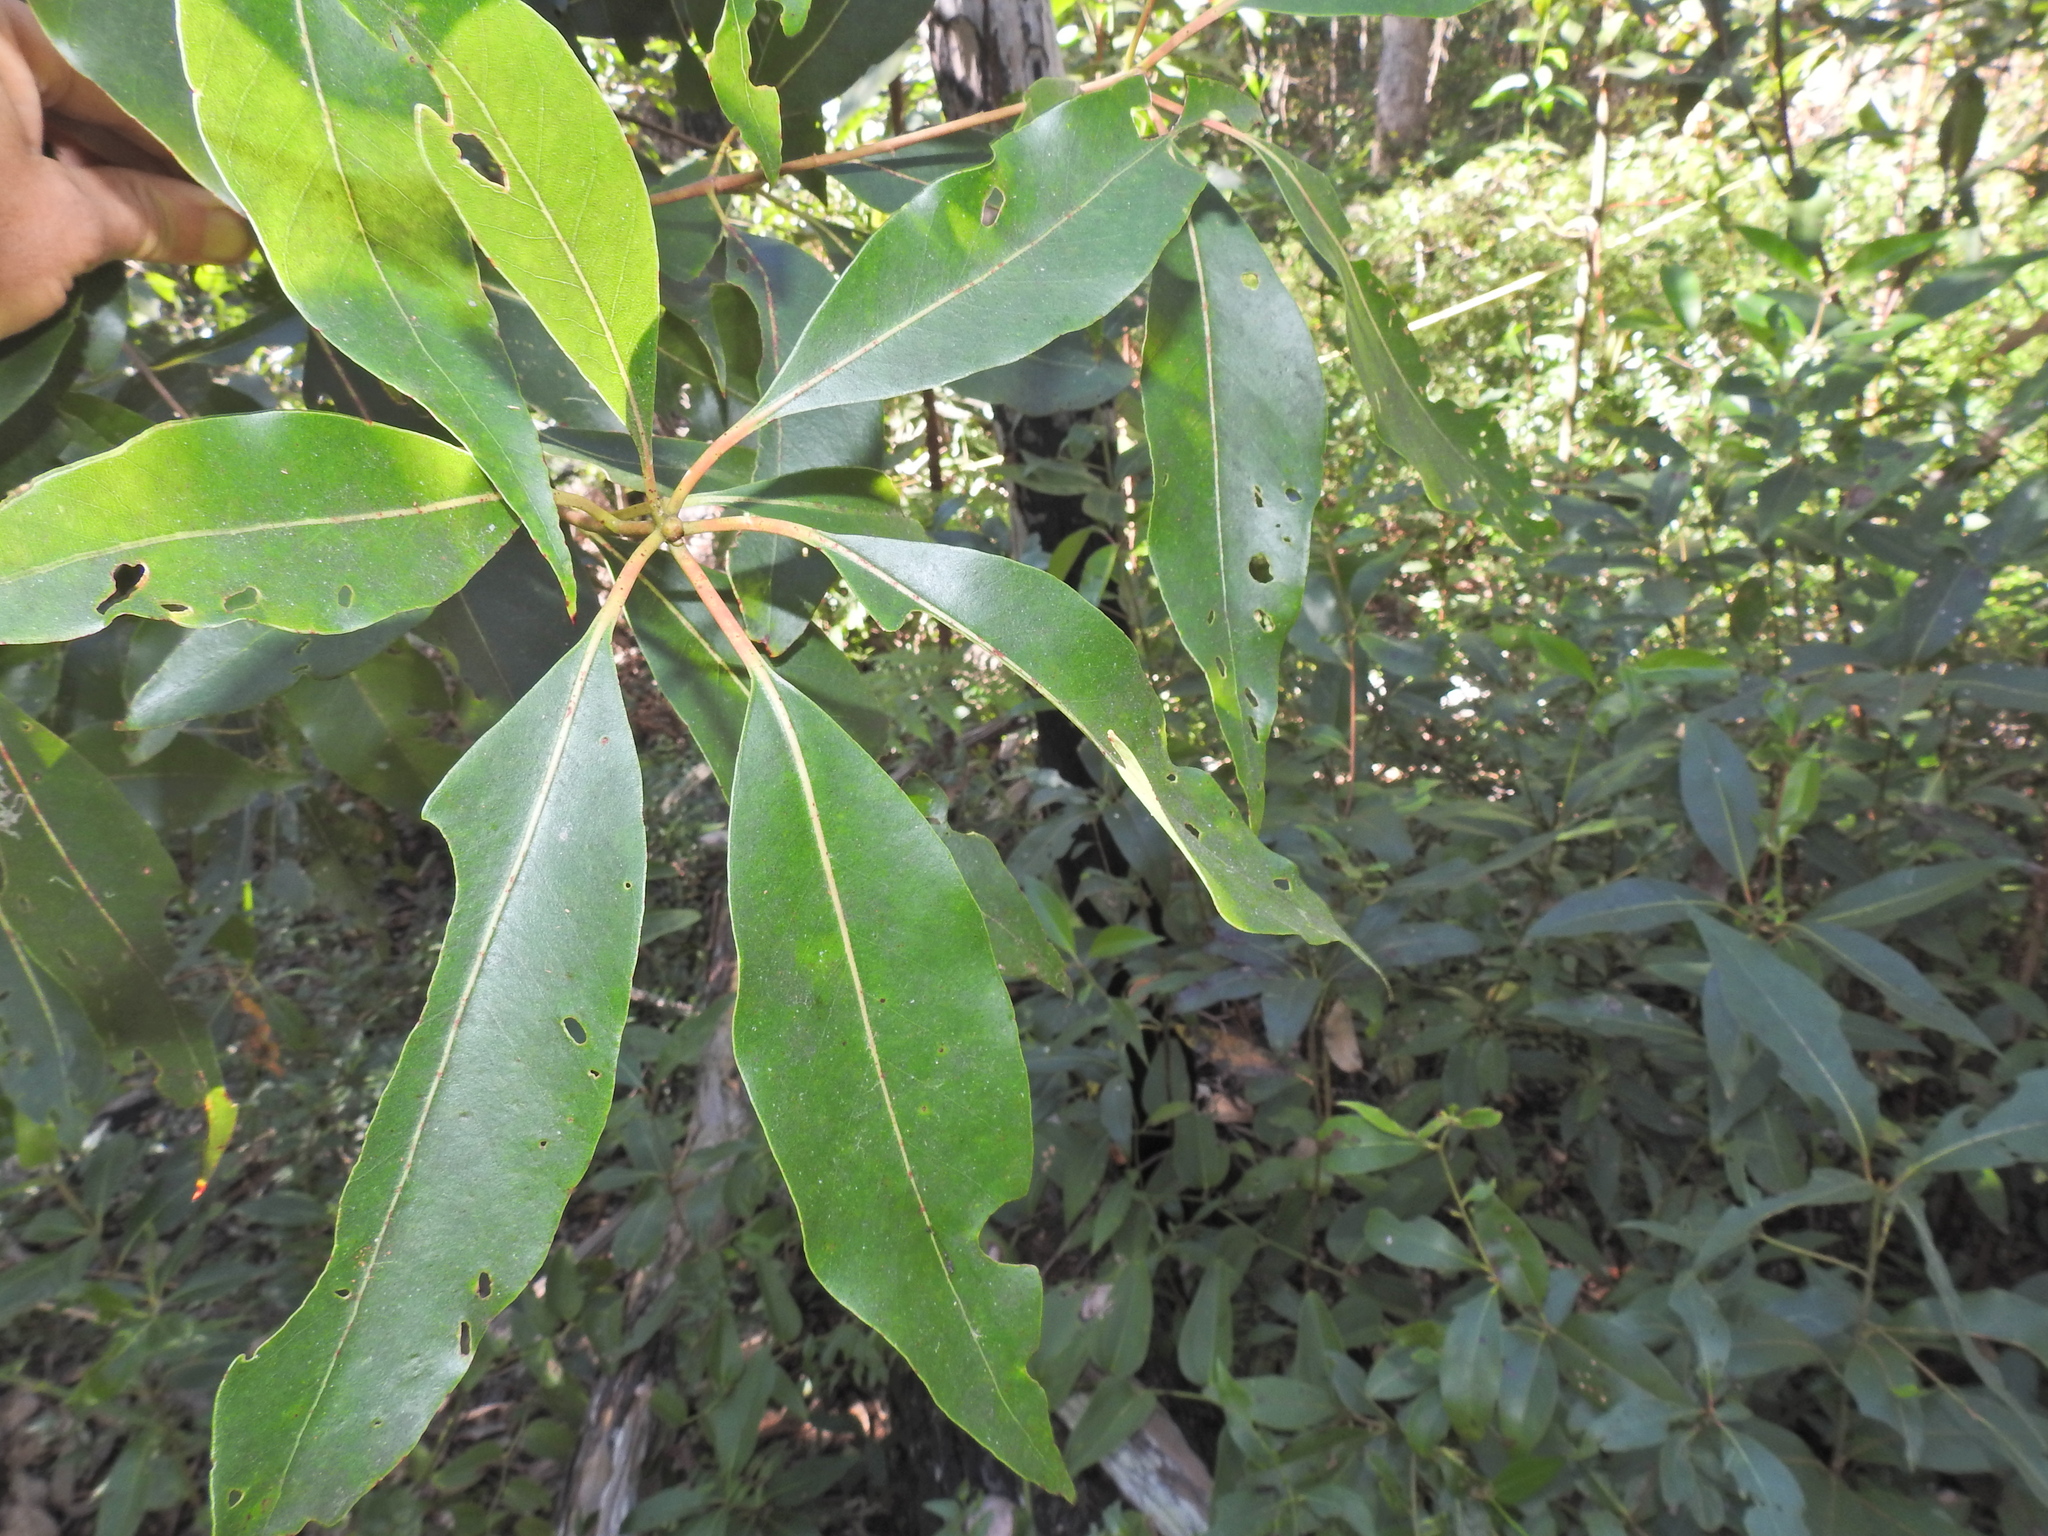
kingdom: Plantae
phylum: Tracheophyta
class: Magnoliopsida
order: Myrtales
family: Myrtaceae
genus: Lophostemon
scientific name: Lophostemon confertus
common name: Brisbane box
